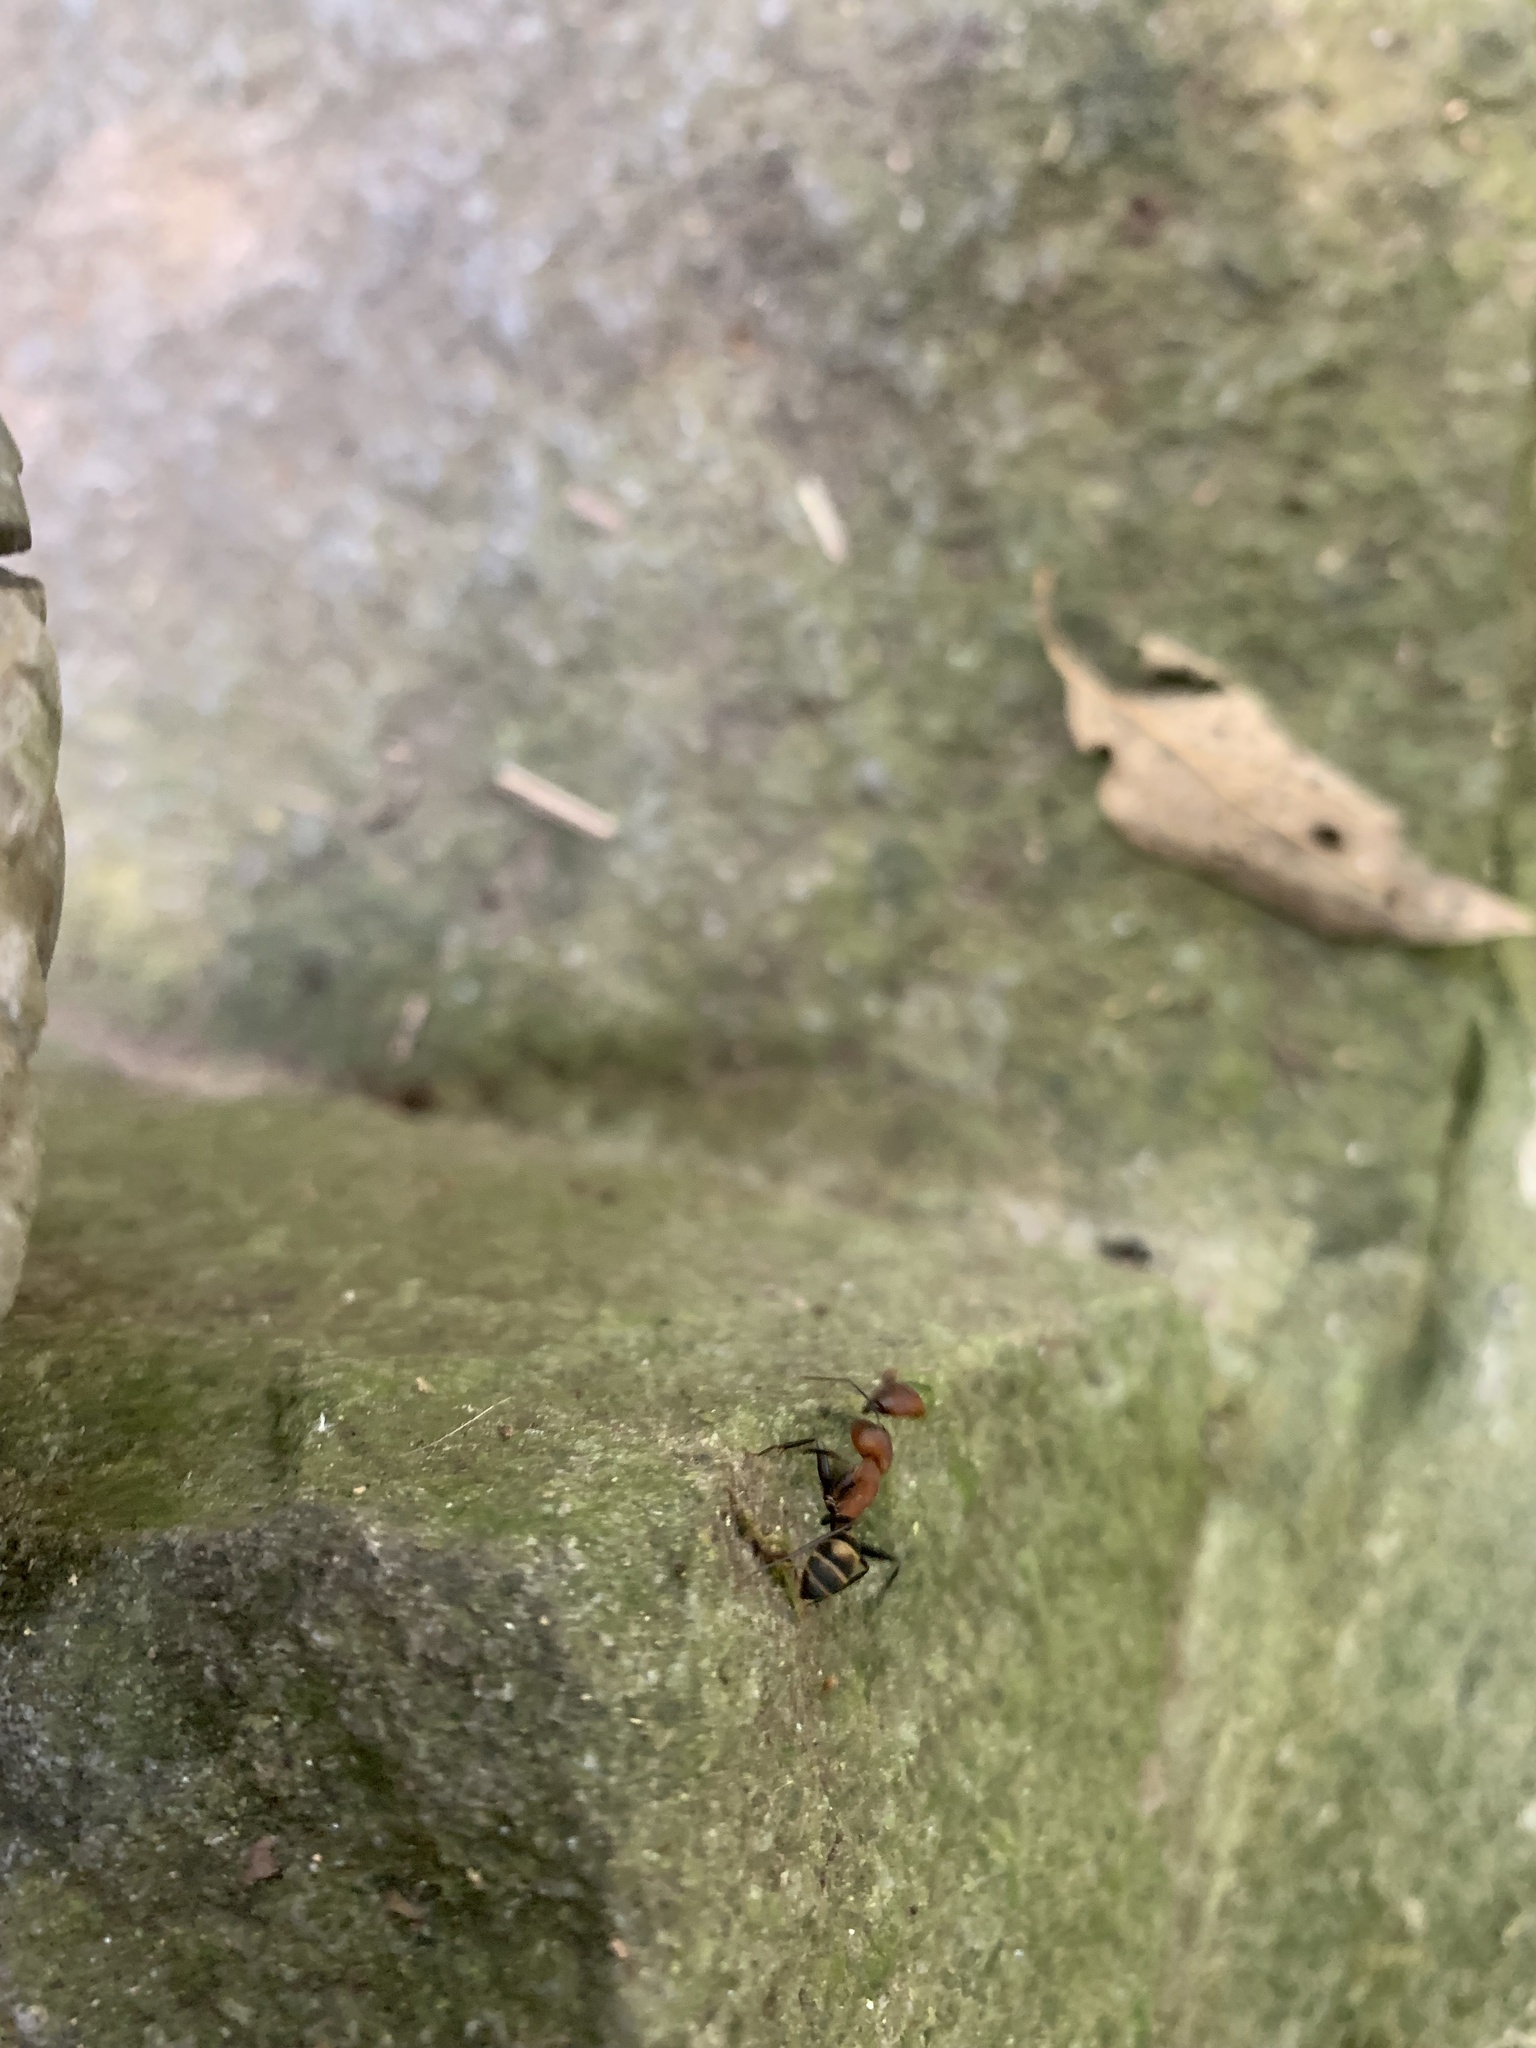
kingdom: Animalia
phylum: Arthropoda
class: Insecta
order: Hymenoptera
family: Formicidae
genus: Camponotus
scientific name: Camponotus habereri
